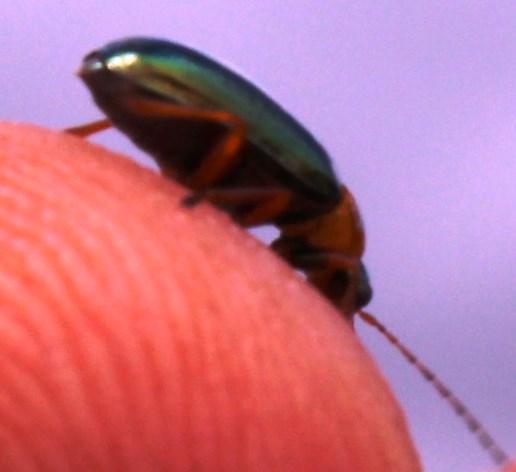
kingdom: Animalia
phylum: Arthropoda
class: Insecta
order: Coleoptera
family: Chrysomelidae
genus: Palaeophylia
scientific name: Palaeophylia
